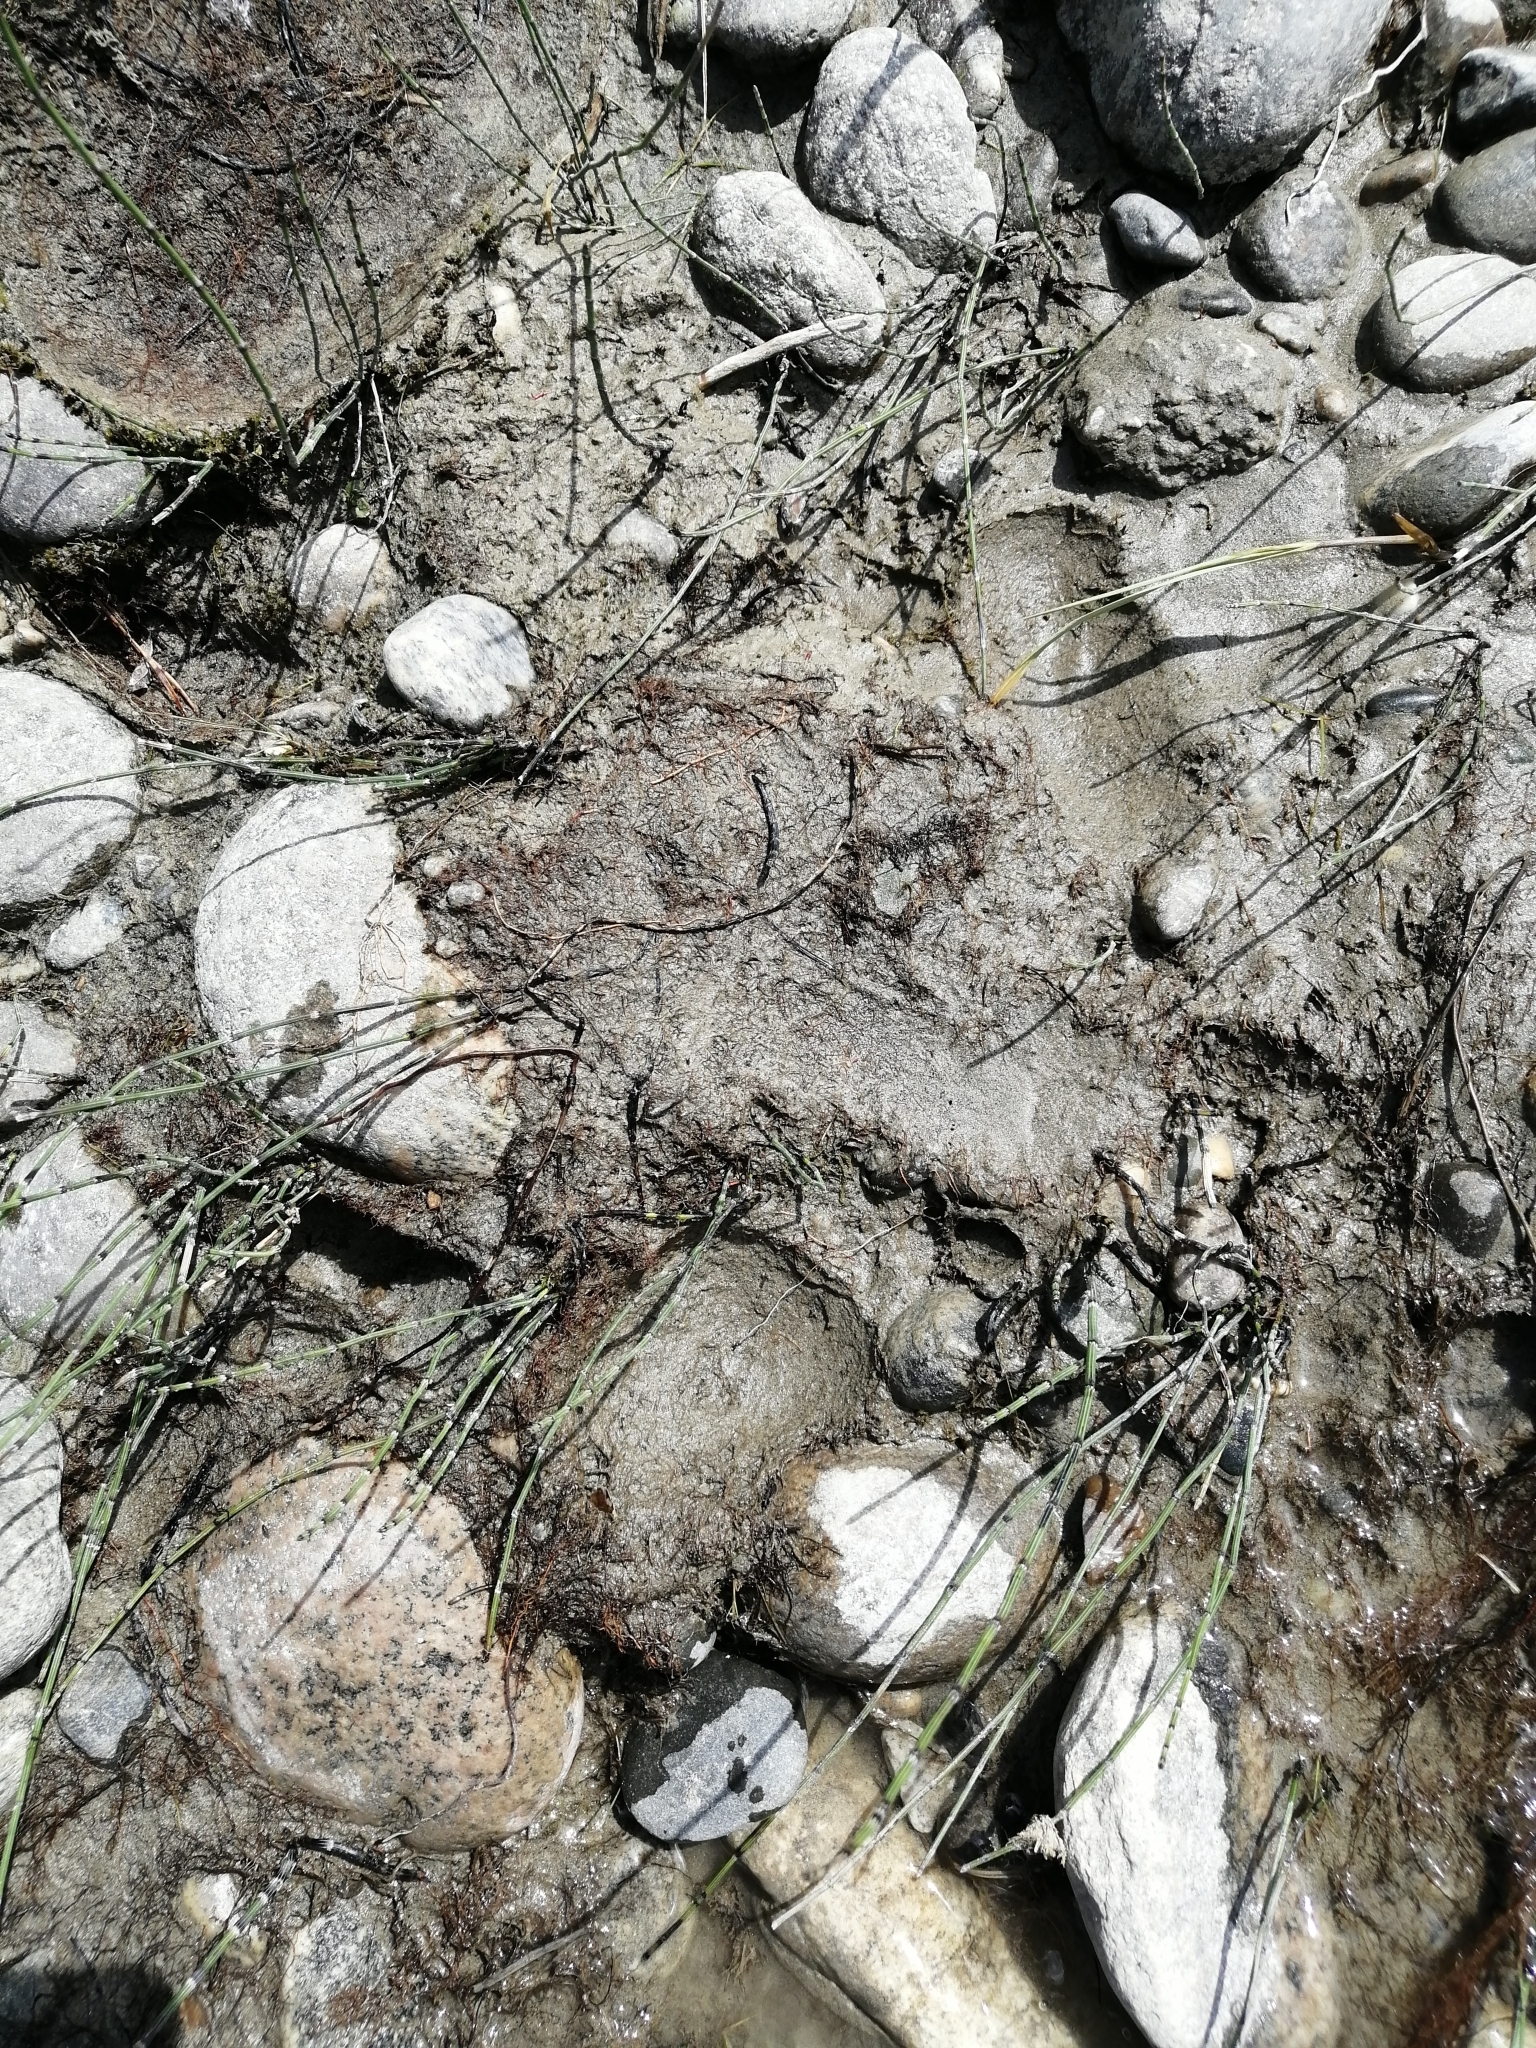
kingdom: Animalia
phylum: Chordata
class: Mammalia
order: Carnivora
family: Ursidae
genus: Ursus
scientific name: Ursus arctos
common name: Brown bear
